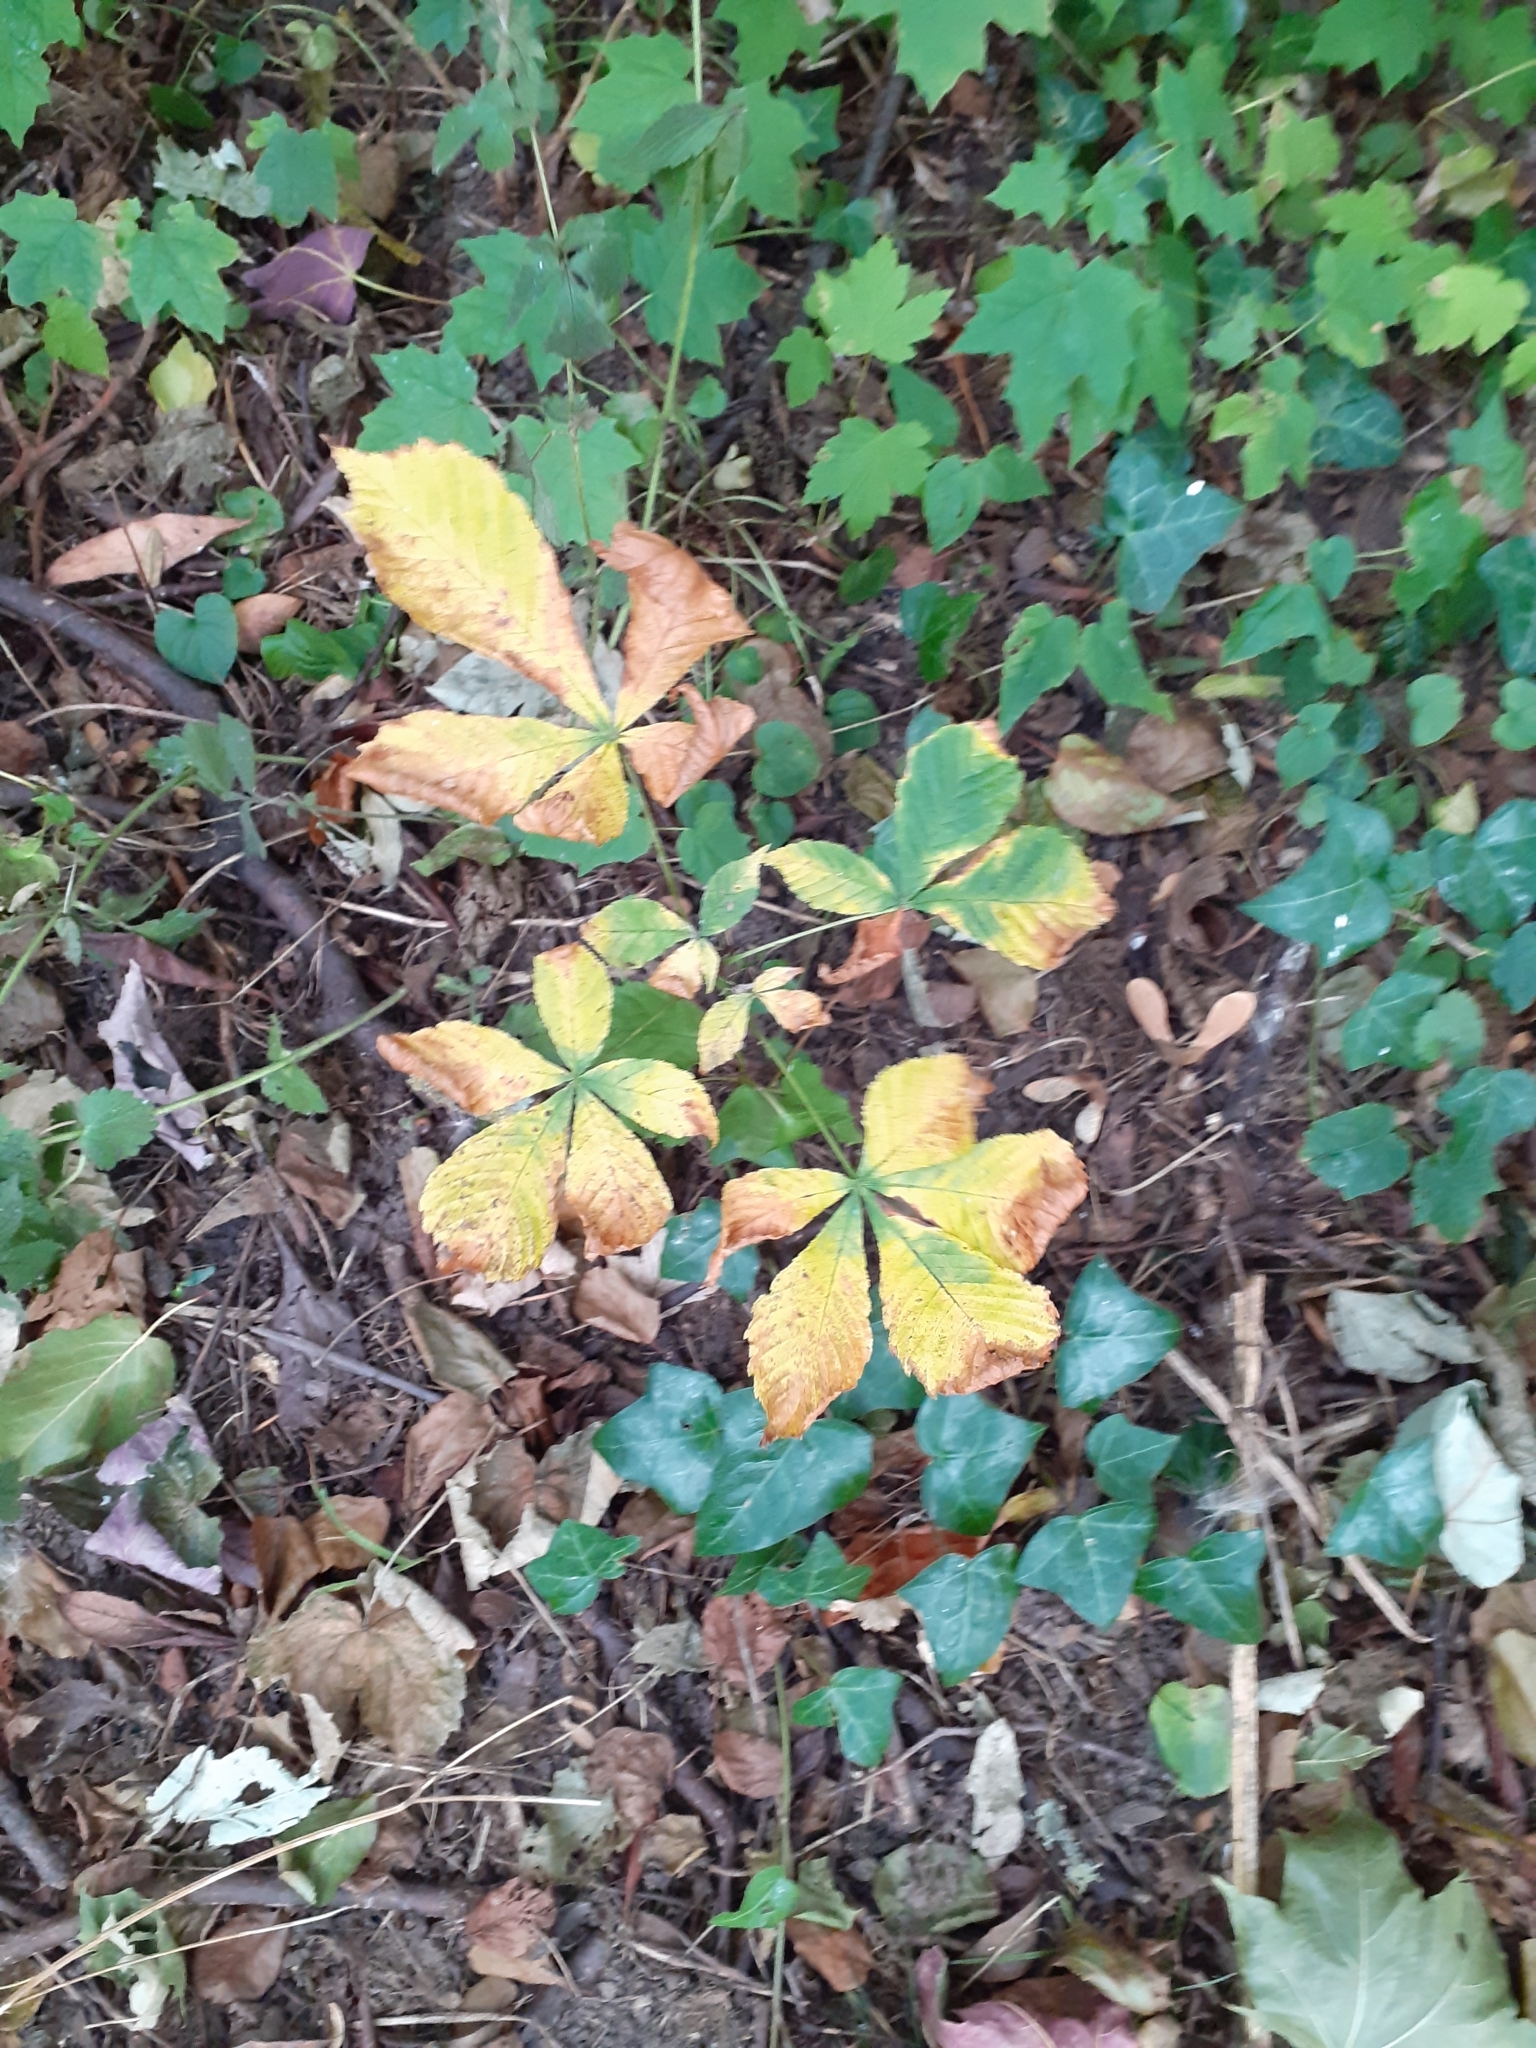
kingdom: Plantae
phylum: Tracheophyta
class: Magnoliopsida
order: Sapindales
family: Sapindaceae
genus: Aesculus
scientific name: Aesculus hippocastanum
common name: Horse-chestnut
